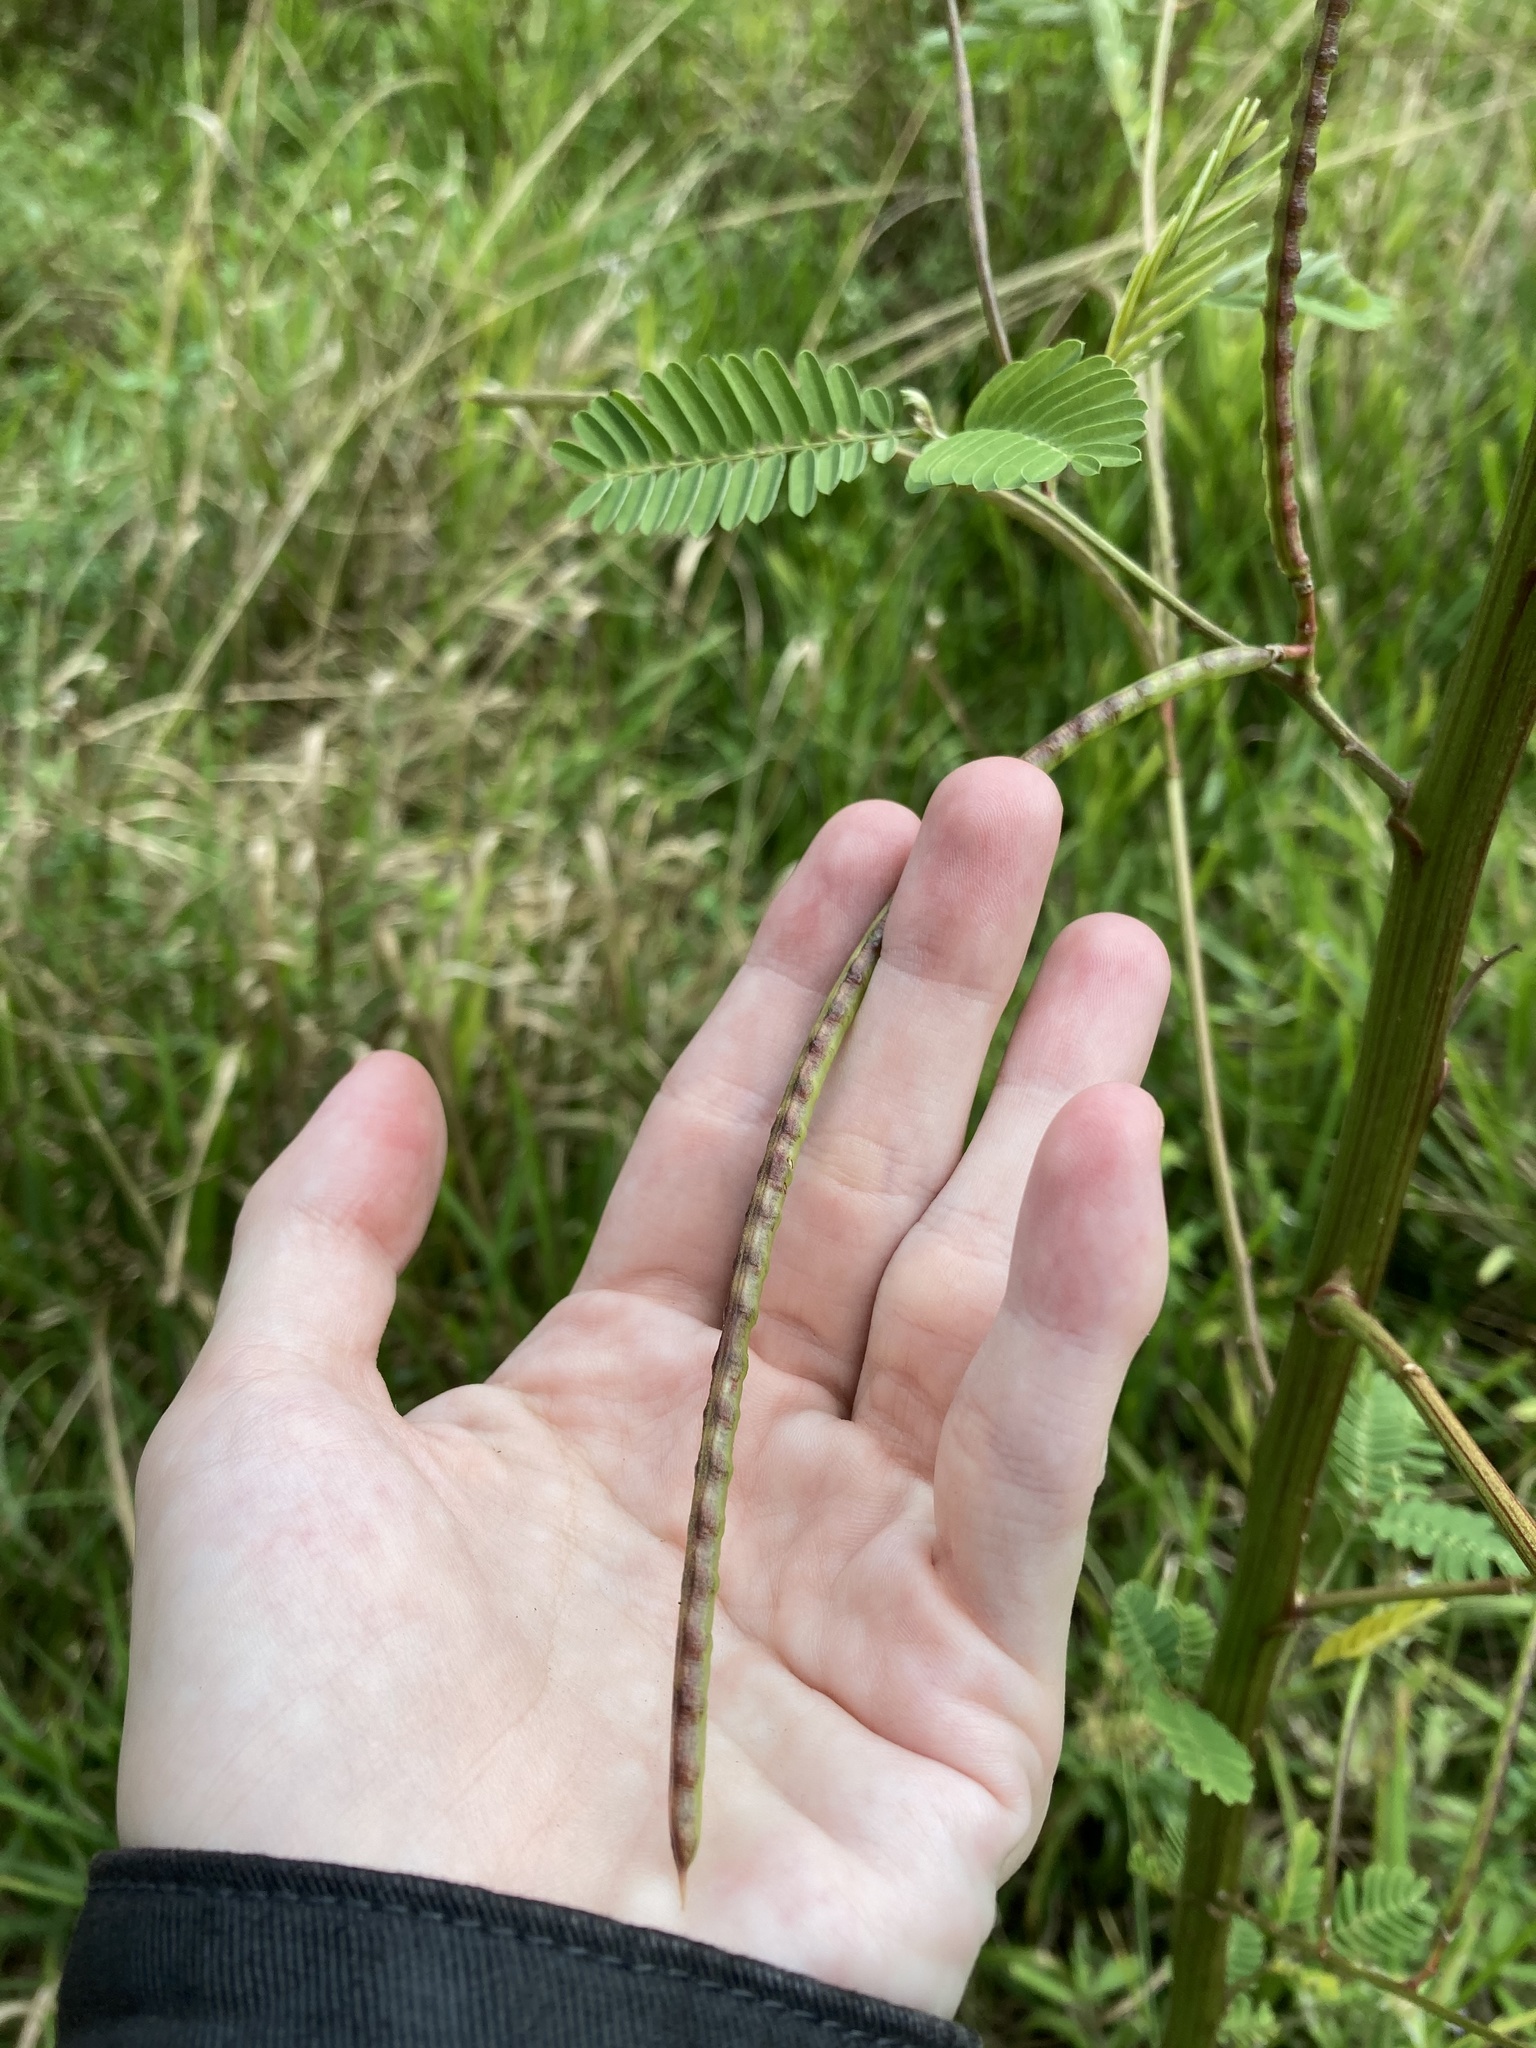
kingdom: Plantae
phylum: Tracheophyta
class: Magnoliopsida
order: Fabales
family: Fabaceae
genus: Sesbania
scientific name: Sesbania herbacea
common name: Bigpod sesbania
